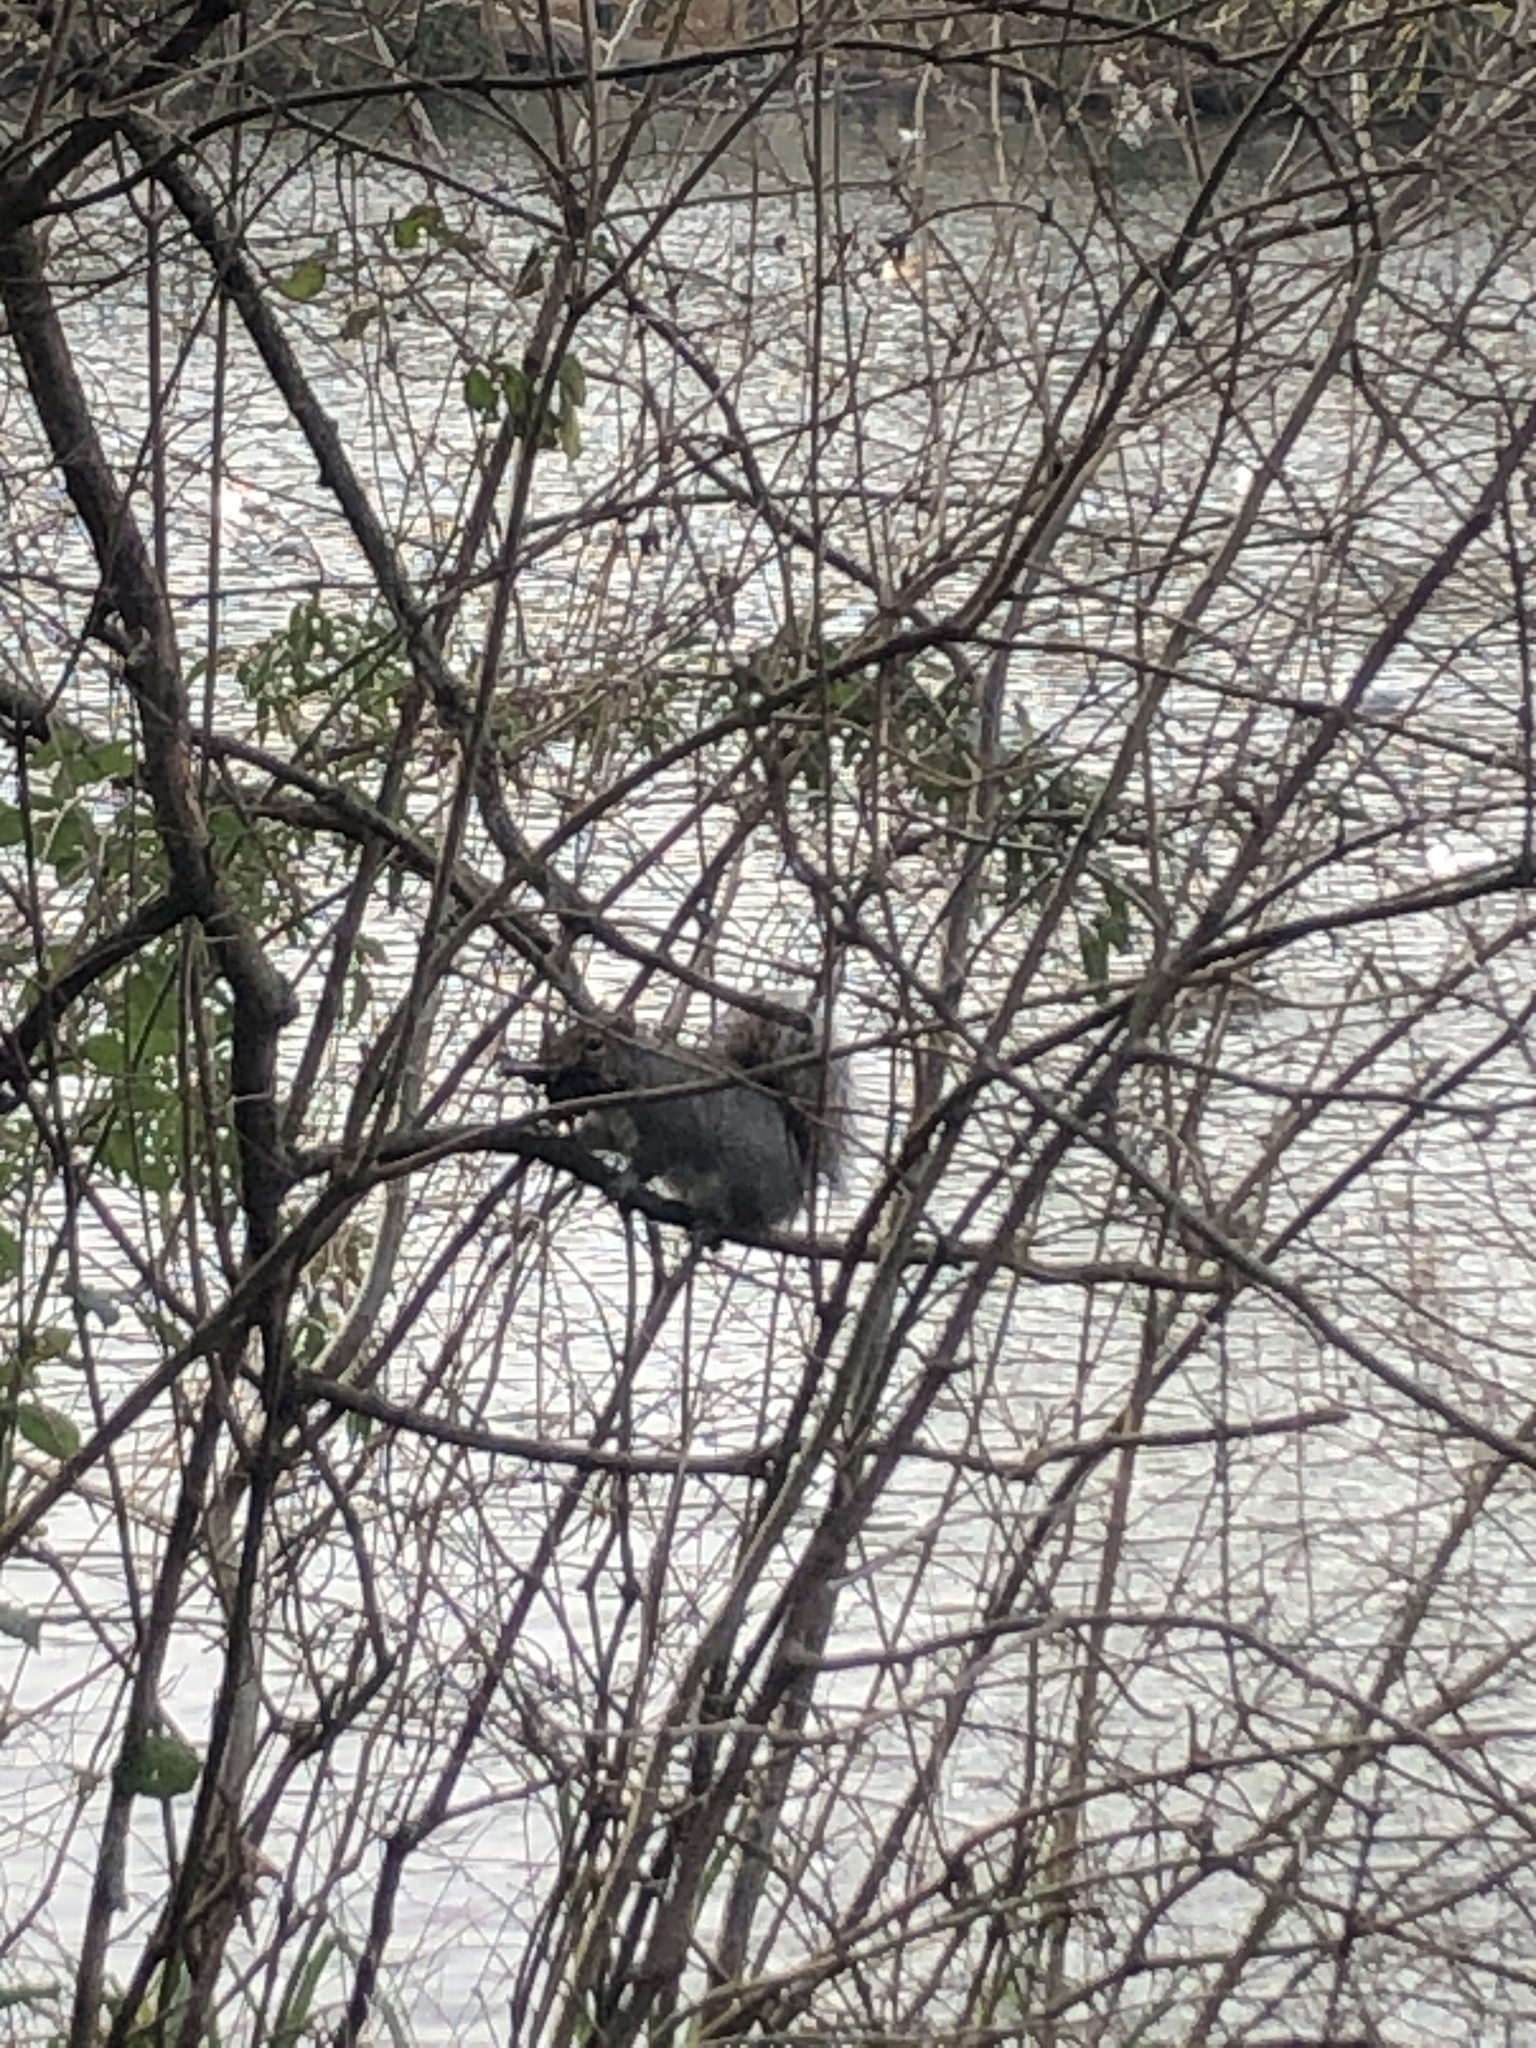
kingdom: Animalia
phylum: Chordata
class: Mammalia
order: Rodentia
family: Sciuridae
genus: Sciurus
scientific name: Sciurus carolinensis
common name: Eastern gray squirrel
